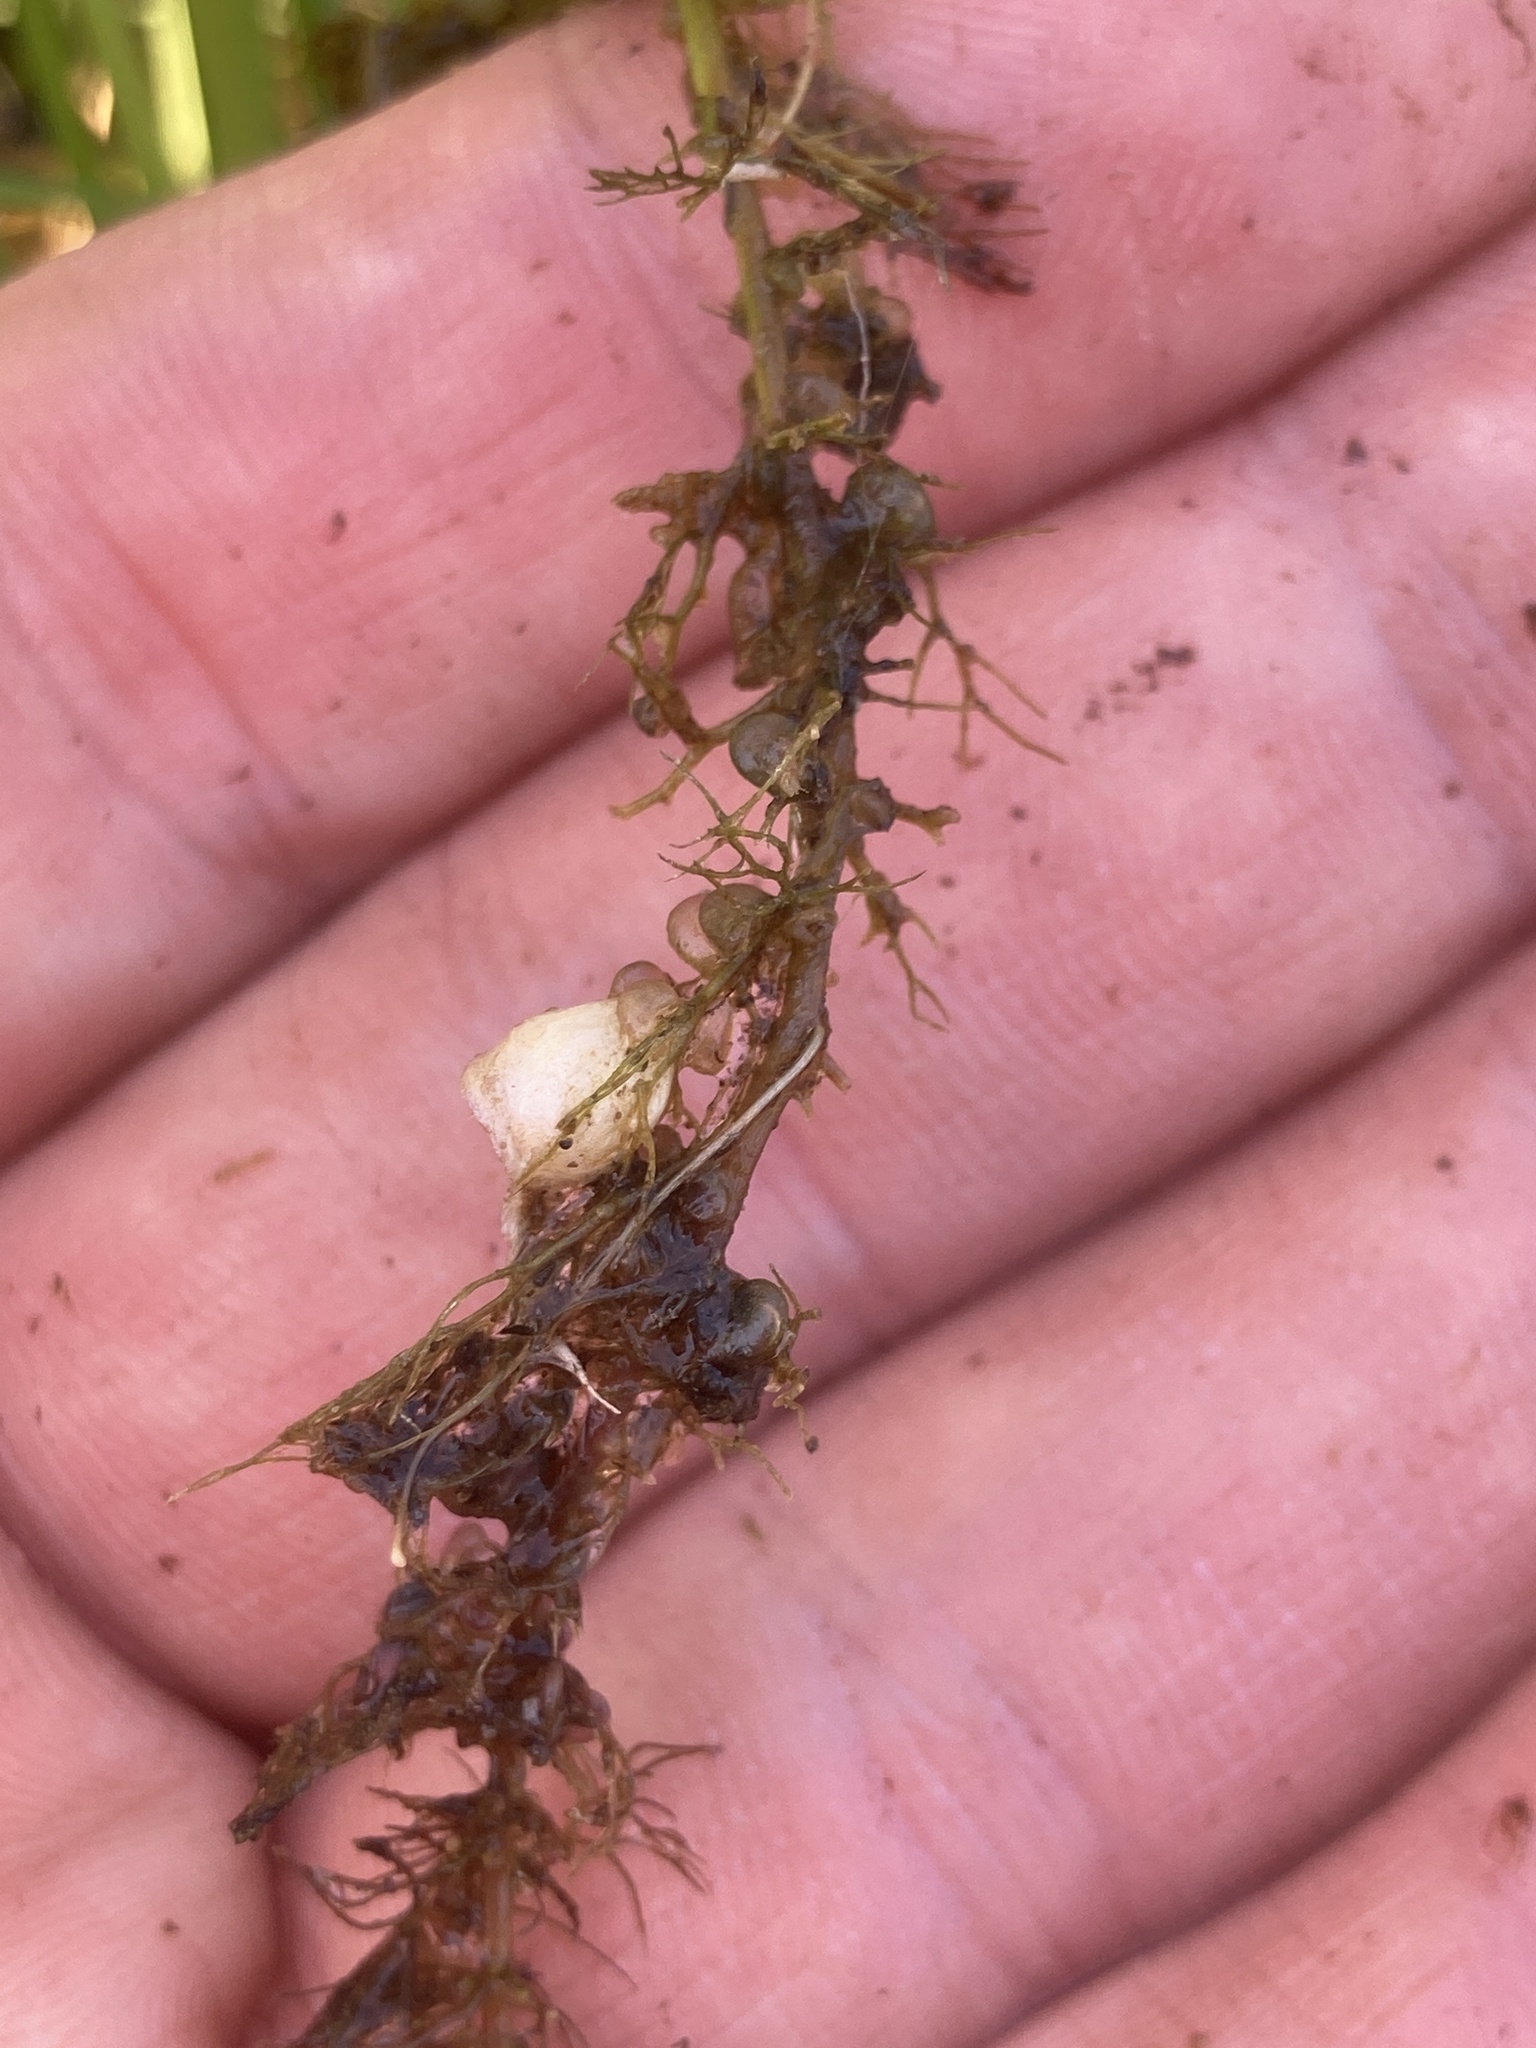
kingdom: Plantae
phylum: Tracheophyta
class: Magnoliopsida
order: Lamiales
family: Lentibulariaceae
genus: Utricularia
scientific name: Utricularia macrorhiza
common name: Common bladderwort
